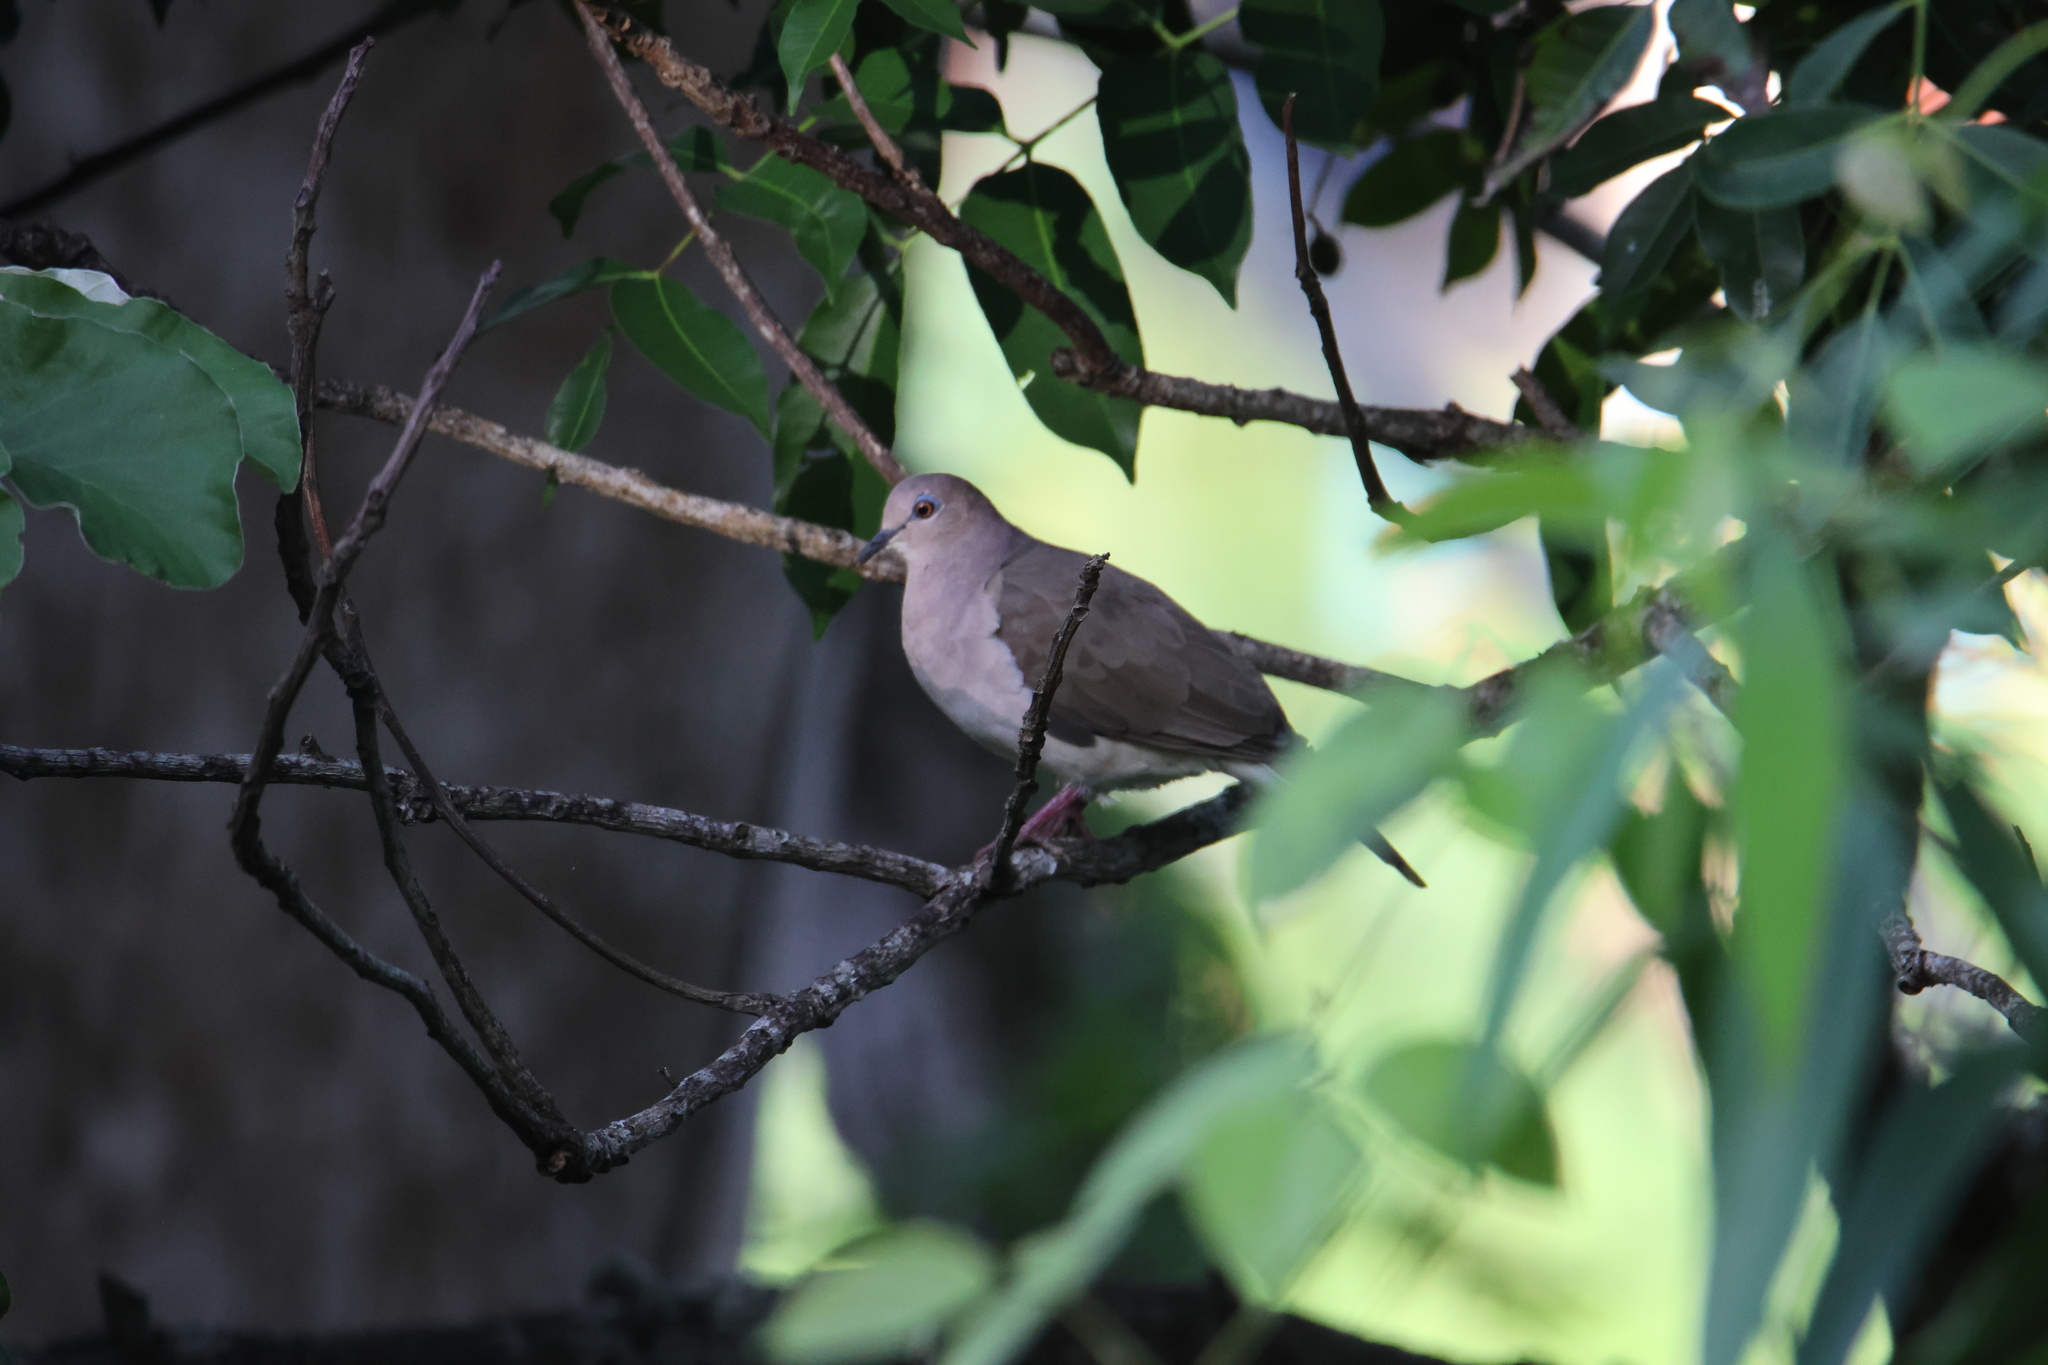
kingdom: Animalia
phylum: Chordata
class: Aves
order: Columbiformes
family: Columbidae
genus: Leptotila
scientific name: Leptotila verreauxi
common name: White-tipped dove
